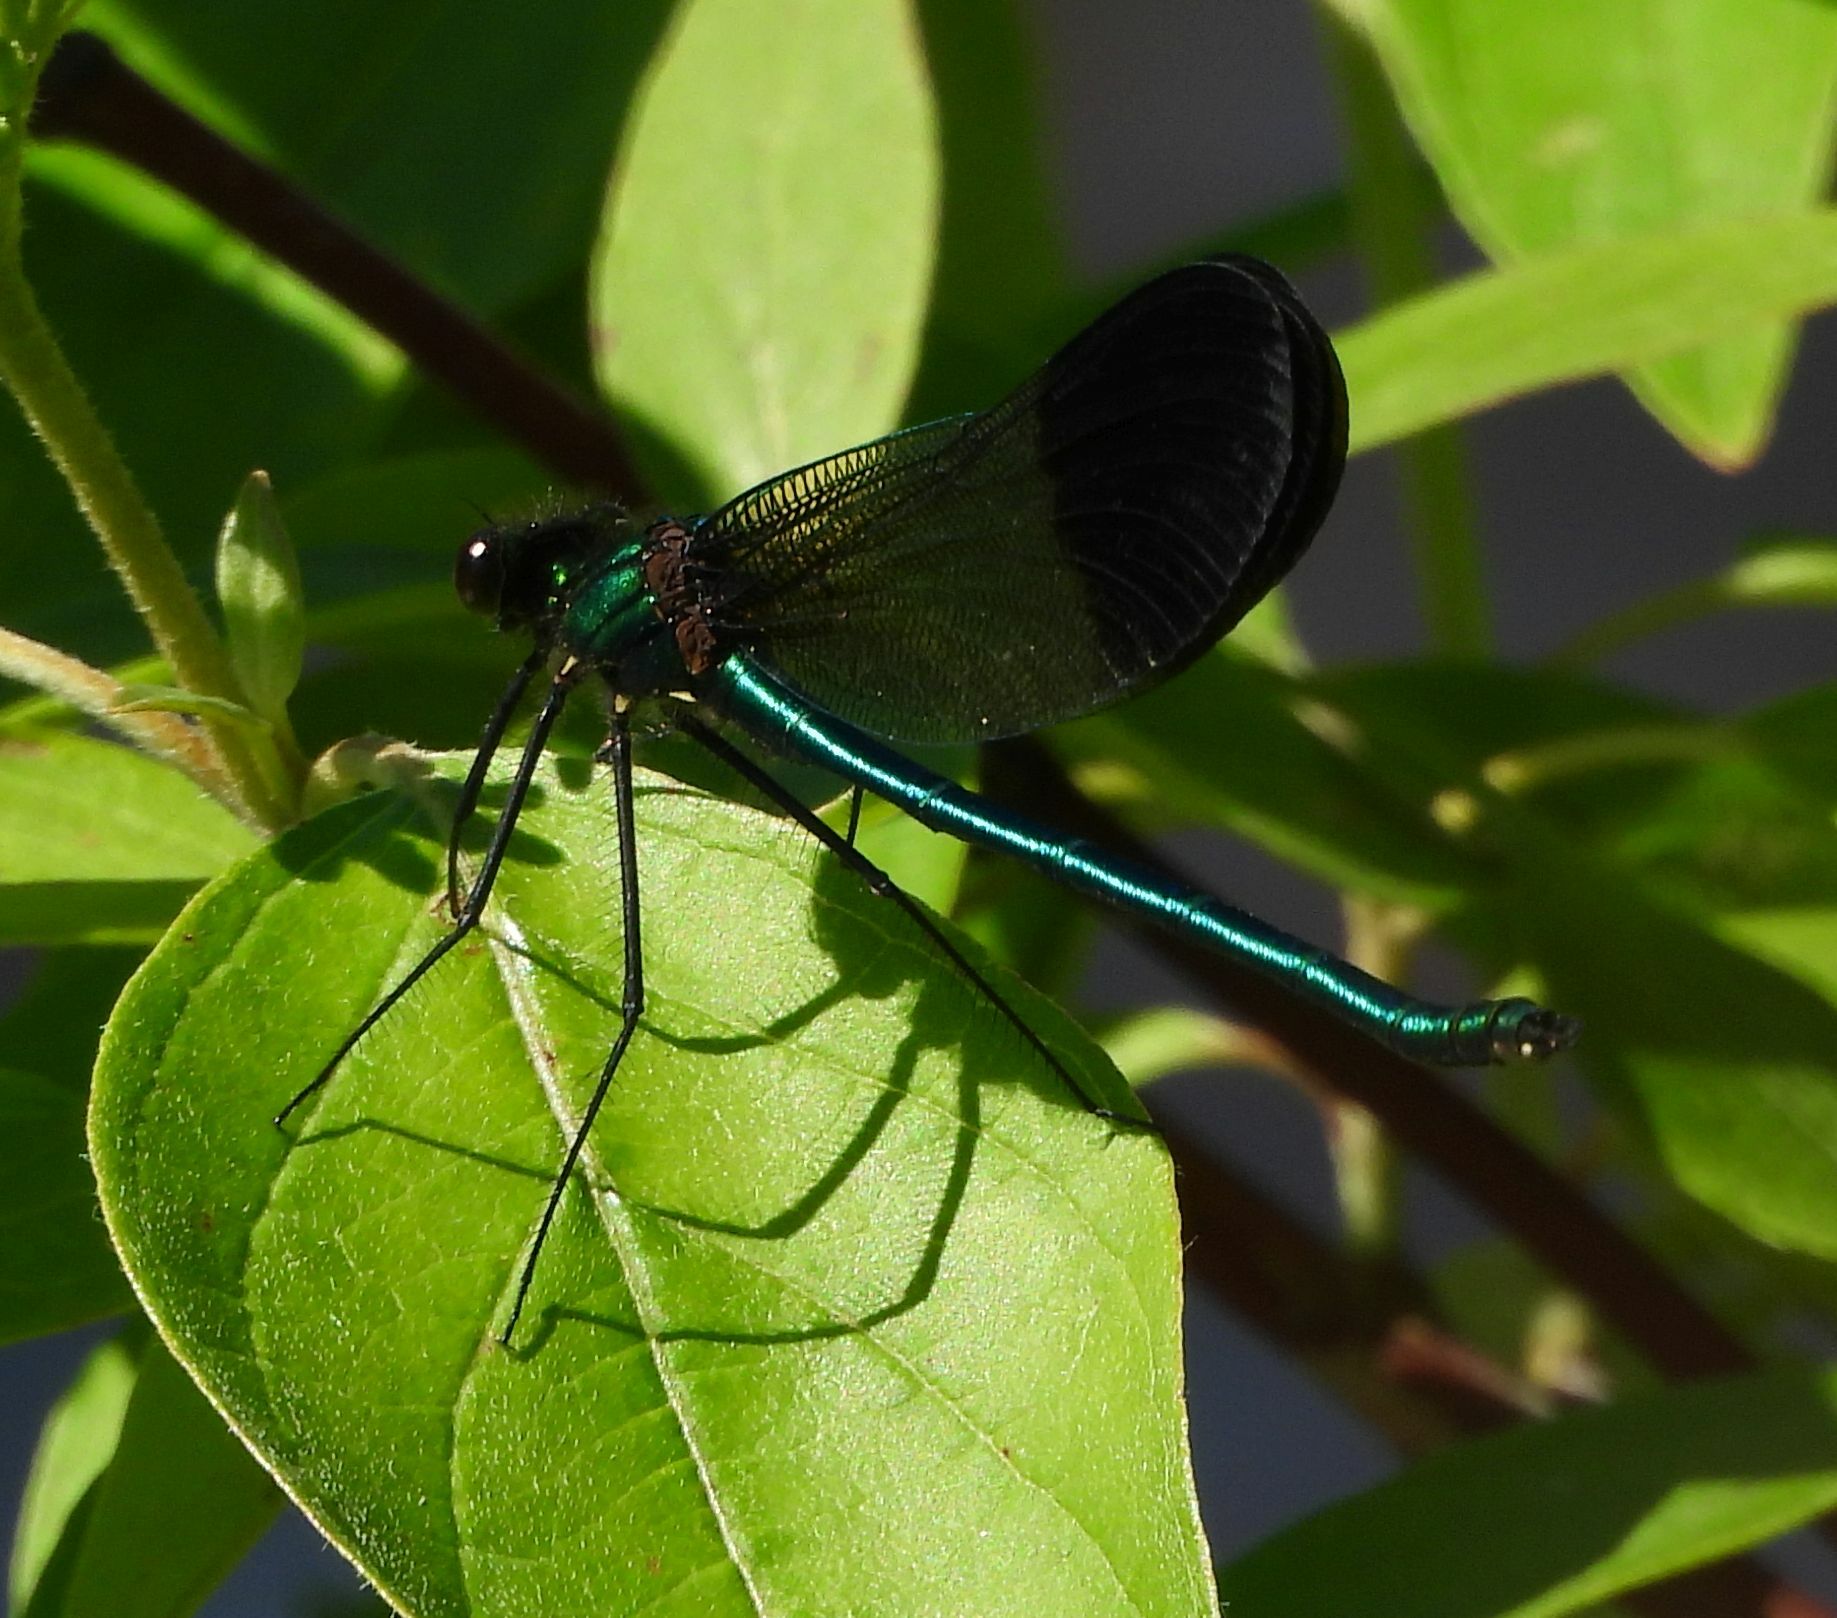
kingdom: Animalia
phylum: Arthropoda
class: Insecta
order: Odonata
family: Calopterygidae
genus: Calopteryx
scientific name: Calopteryx aequabilis
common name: River jewelwing
